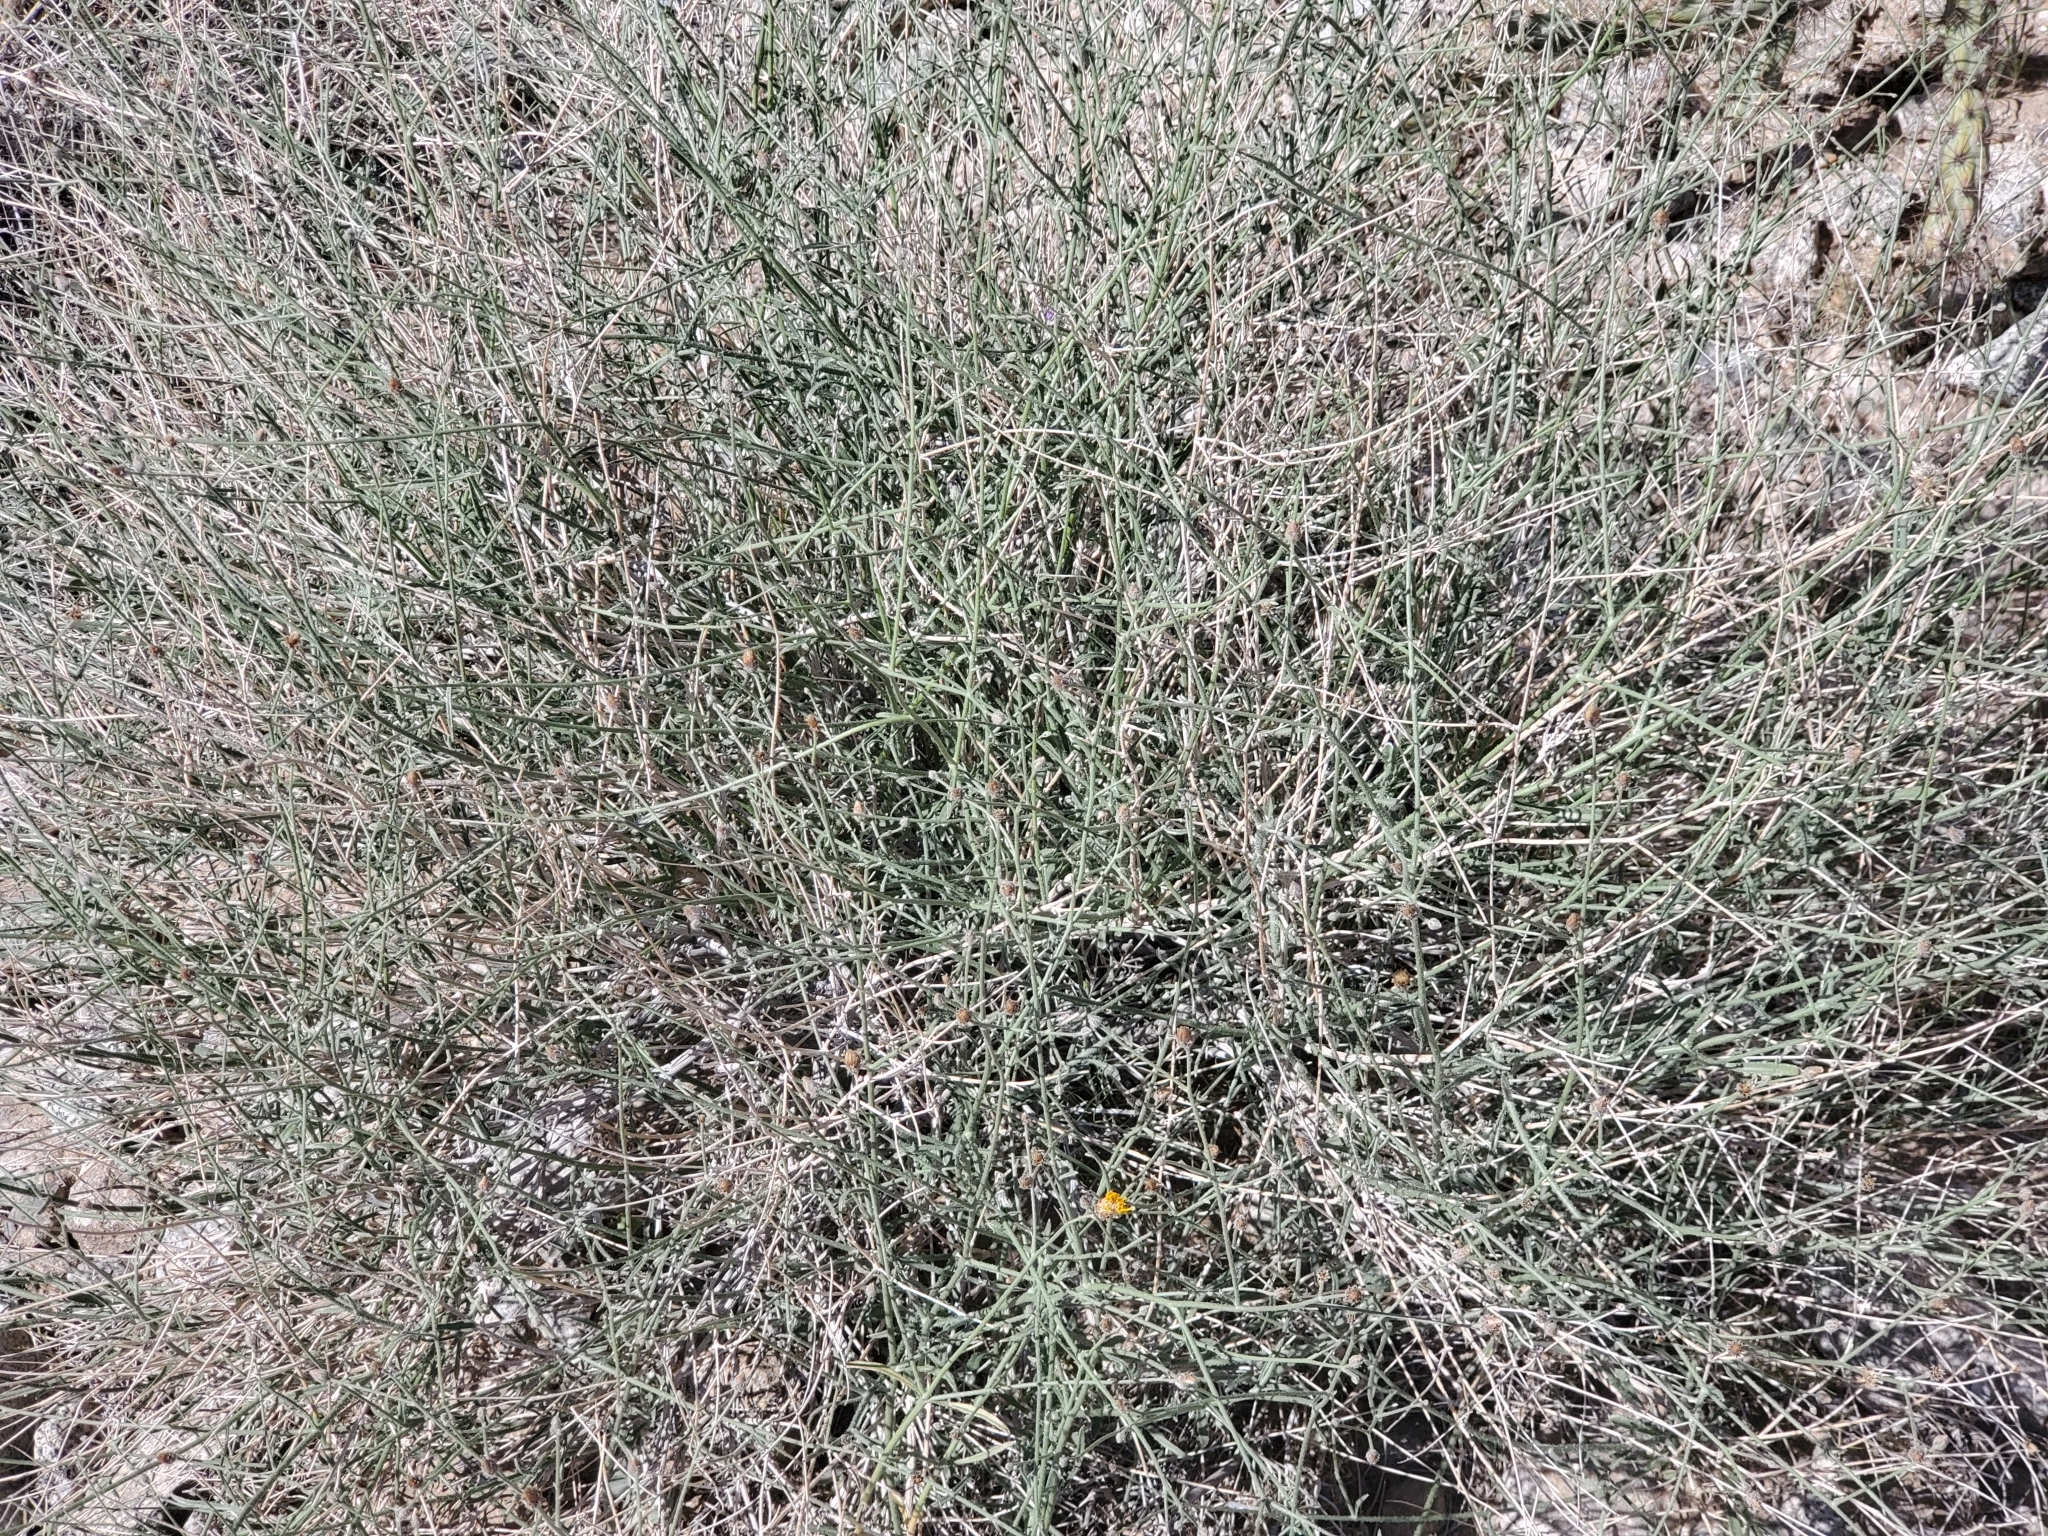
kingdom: Plantae
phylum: Tracheophyta
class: Magnoliopsida
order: Asterales
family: Asteraceae
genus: Bebbia
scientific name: Bebbia juncea
